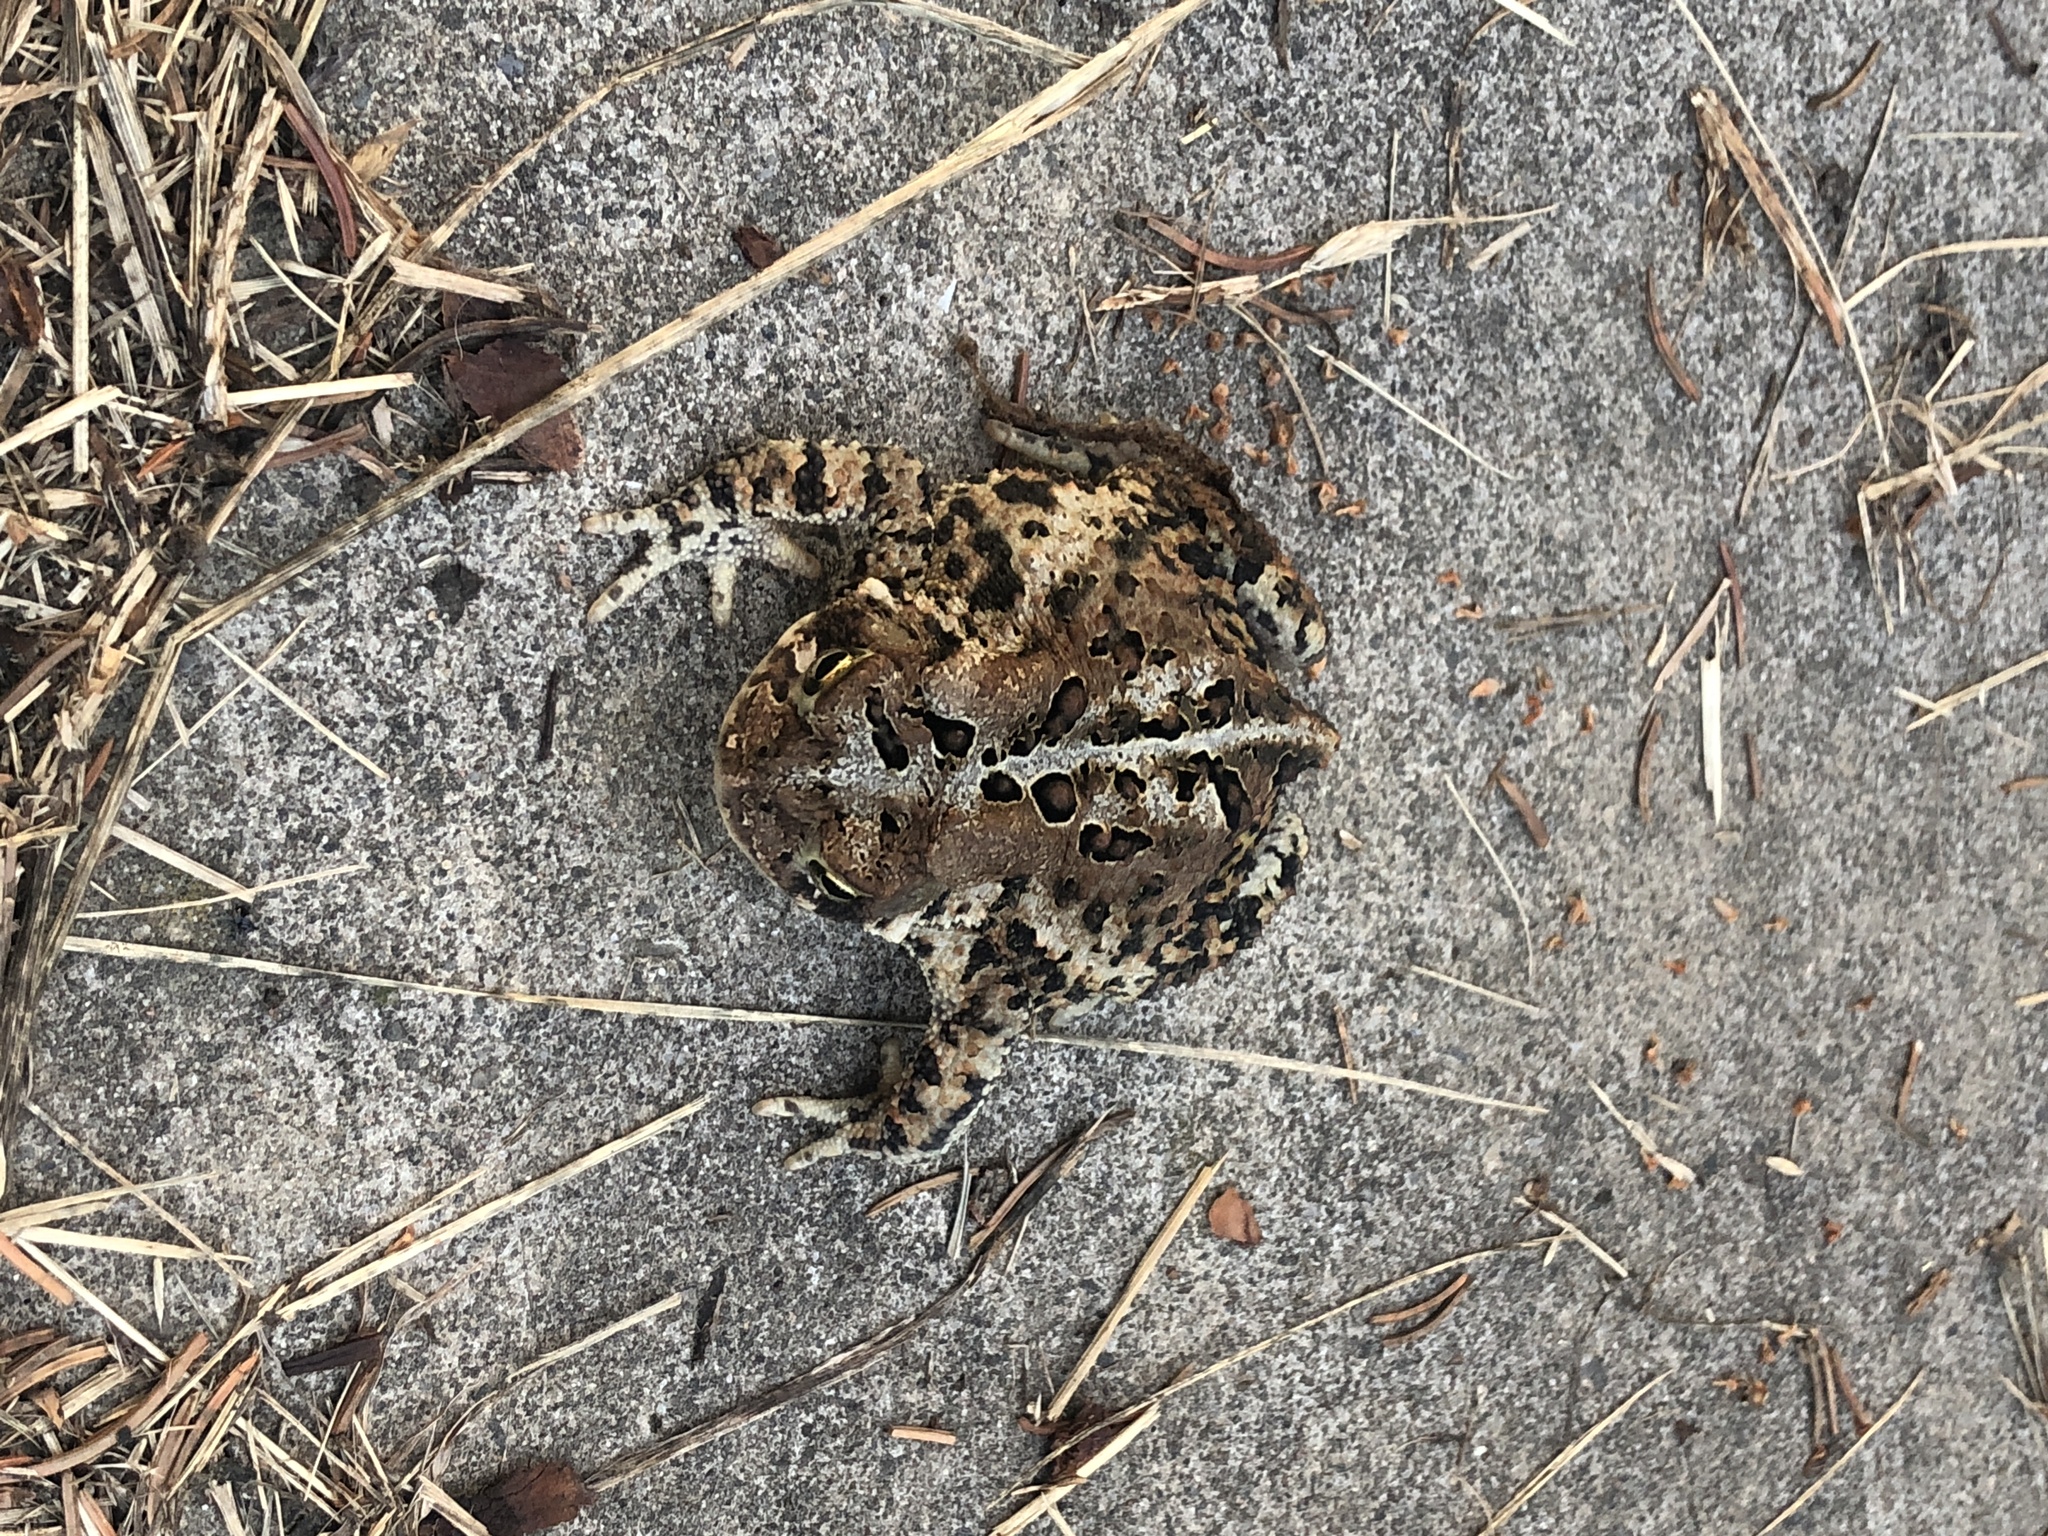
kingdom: Animalia
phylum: Chordata
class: Amphibia
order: Anura
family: Bufonidae
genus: Anaxyrus
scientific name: Anaxyrus americanus
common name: American toad
